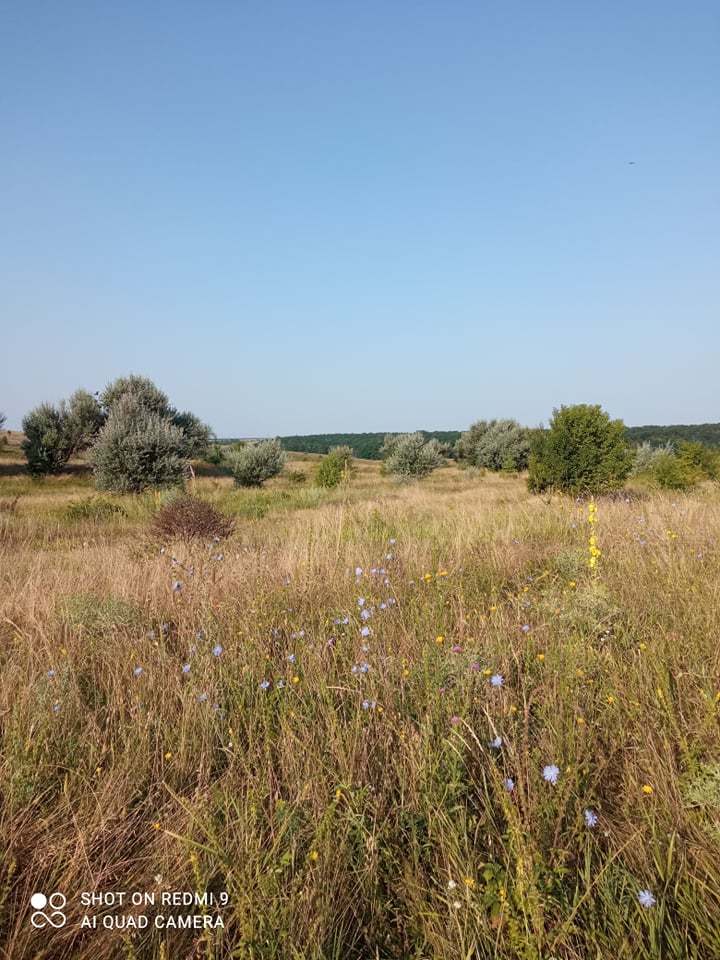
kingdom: Plantae
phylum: Tracheophyta
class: Magnoliopsida
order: Rosales
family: Elaeagnaceae
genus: Elaeagnus
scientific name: Elaeagnus angustifolia
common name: Russian olive
